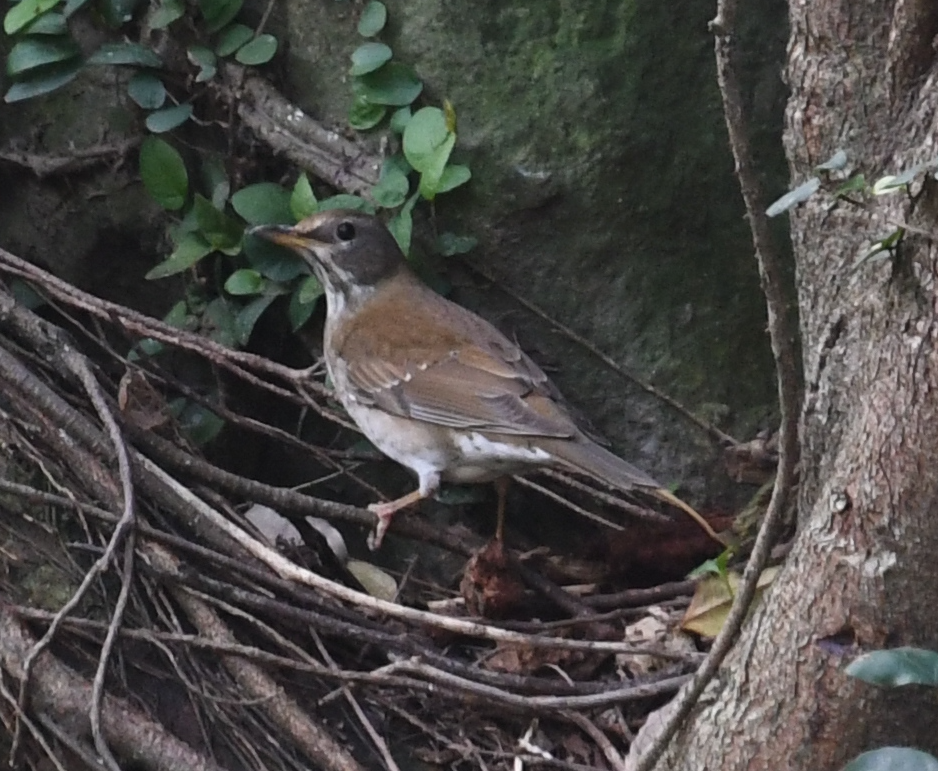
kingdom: Animalia
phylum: Chordata
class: Aves
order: Passeriformes
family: Turdidae
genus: Turdus
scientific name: Turdus pallidus
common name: Pale thrush
